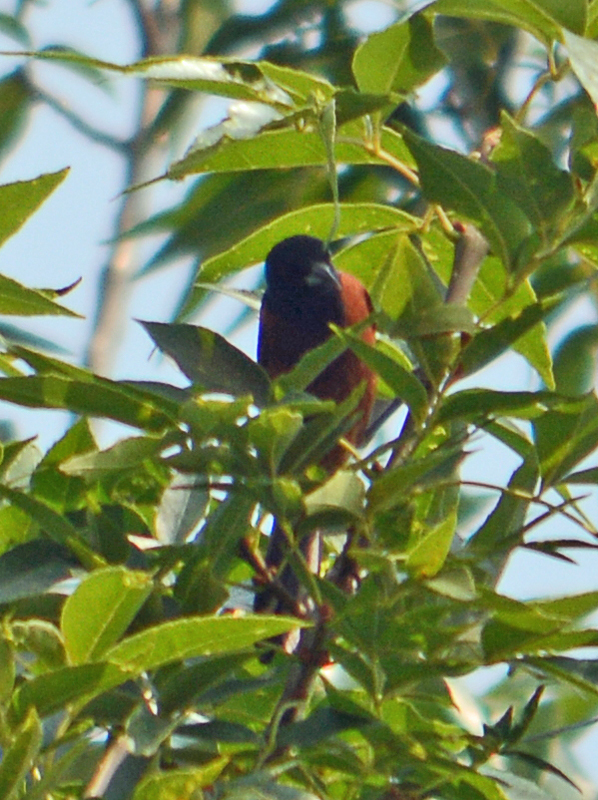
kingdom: Animalia
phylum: Chordata
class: Aves
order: Passeriformes
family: Icteridae
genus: Icterus
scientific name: Icterus spurius
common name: Orchard oriole
